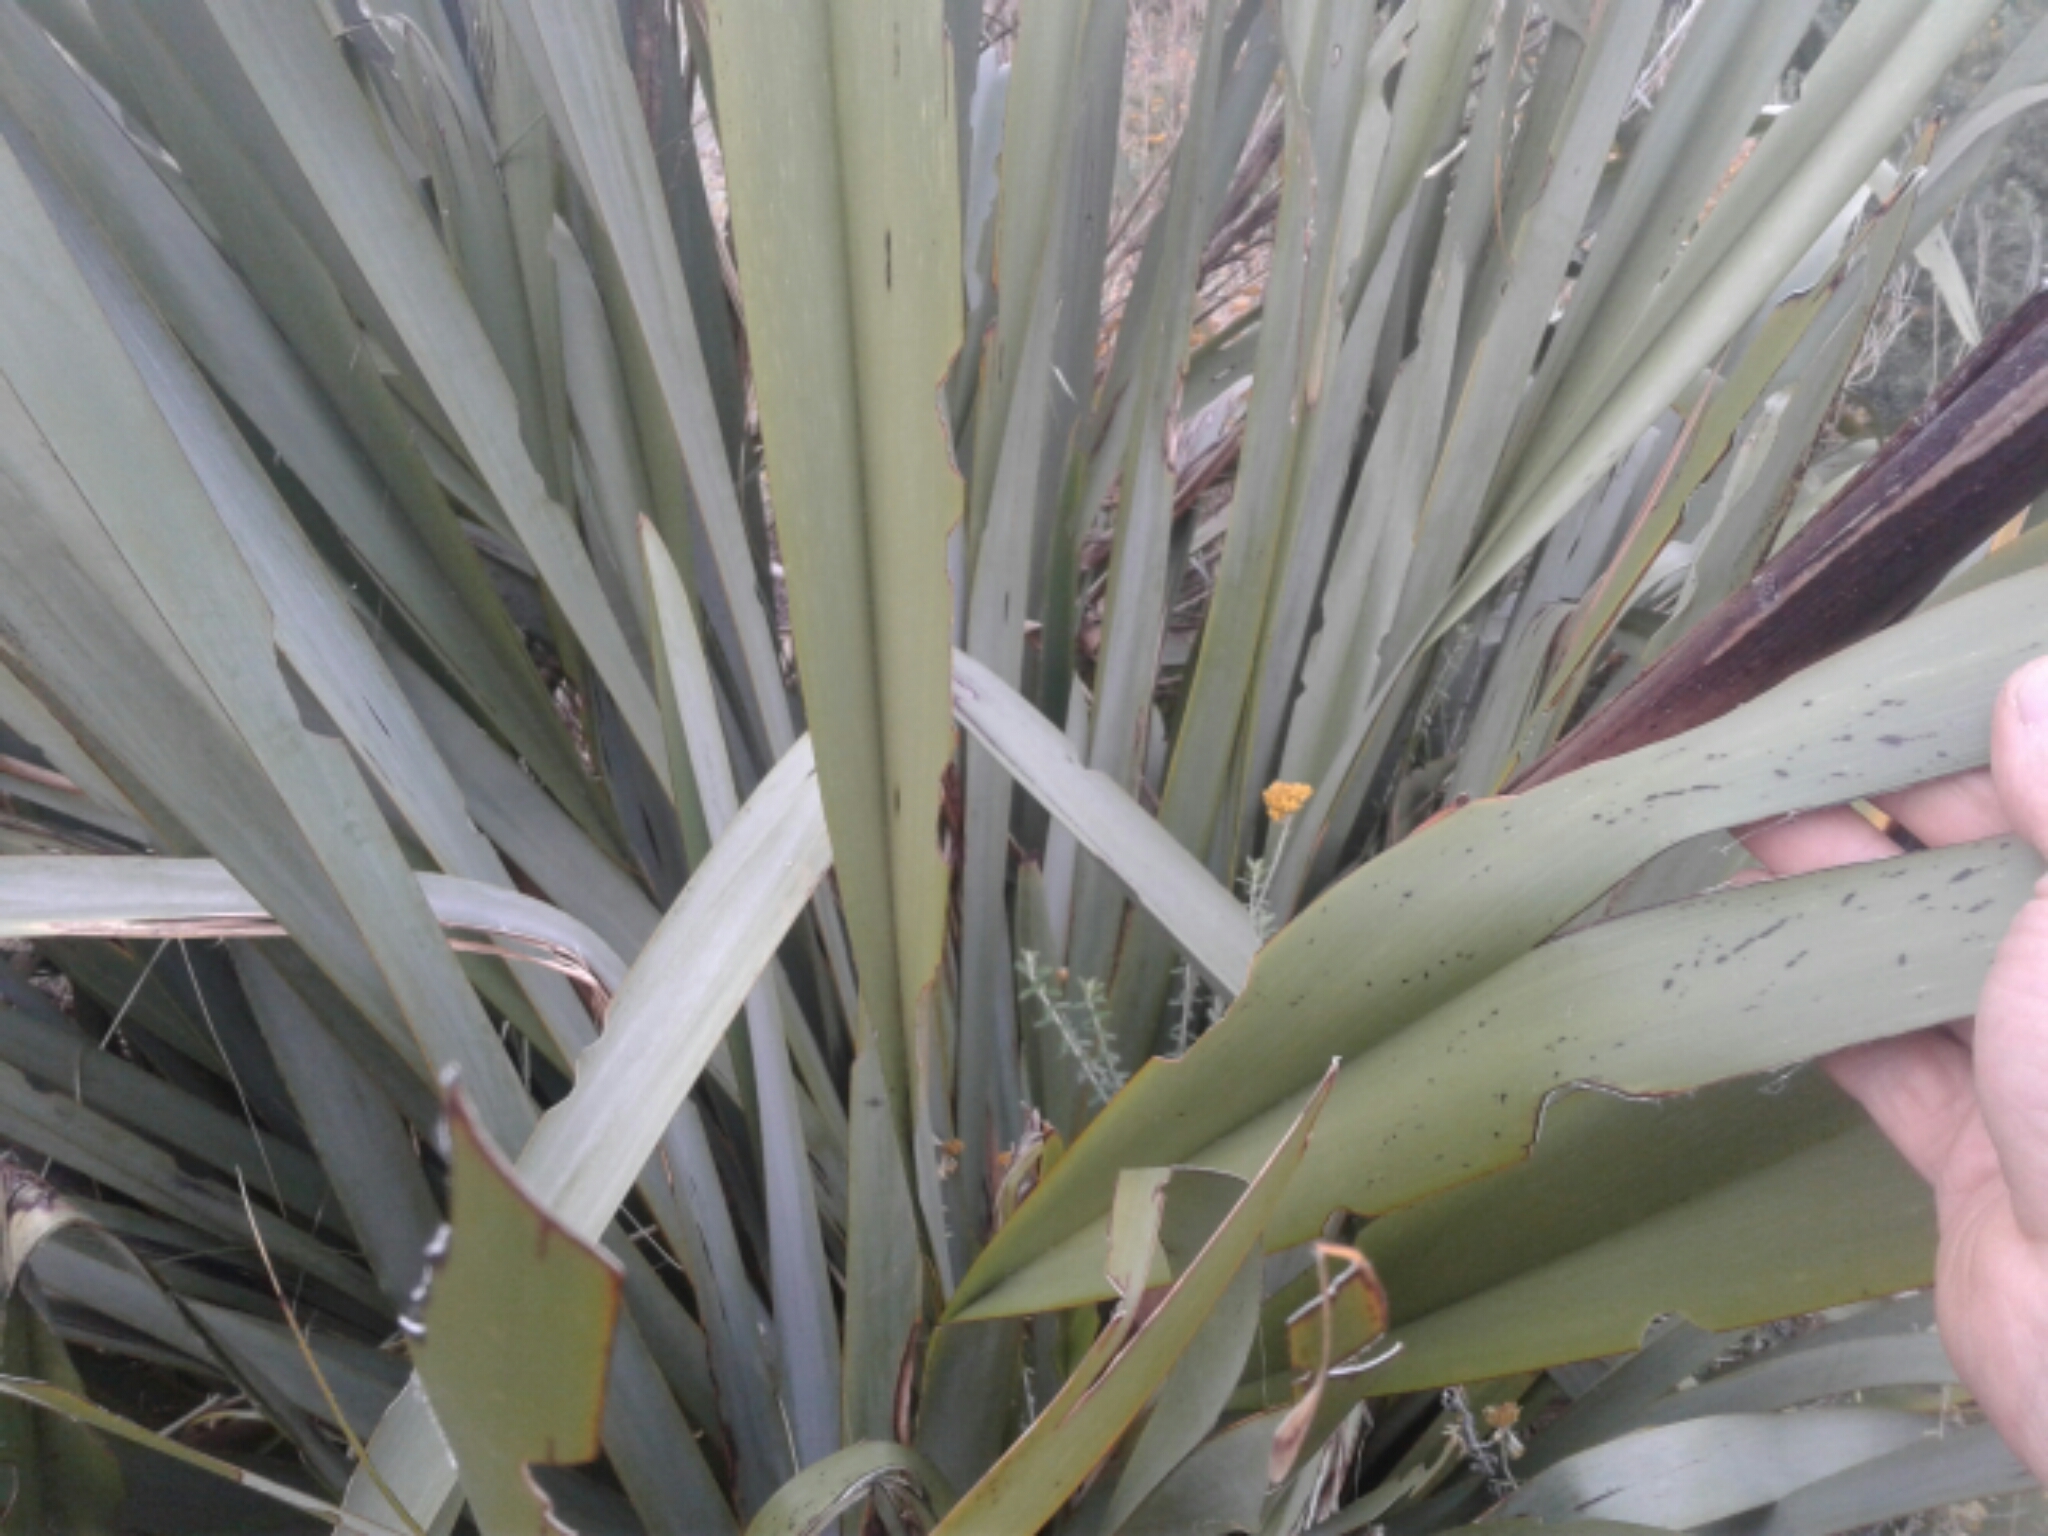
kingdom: Plantae
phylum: Tracheophyta
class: Liliopsida
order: Asparagales
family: Asphodelaceae
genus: Phormium
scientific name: Phormium tenax
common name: New zealand flax
